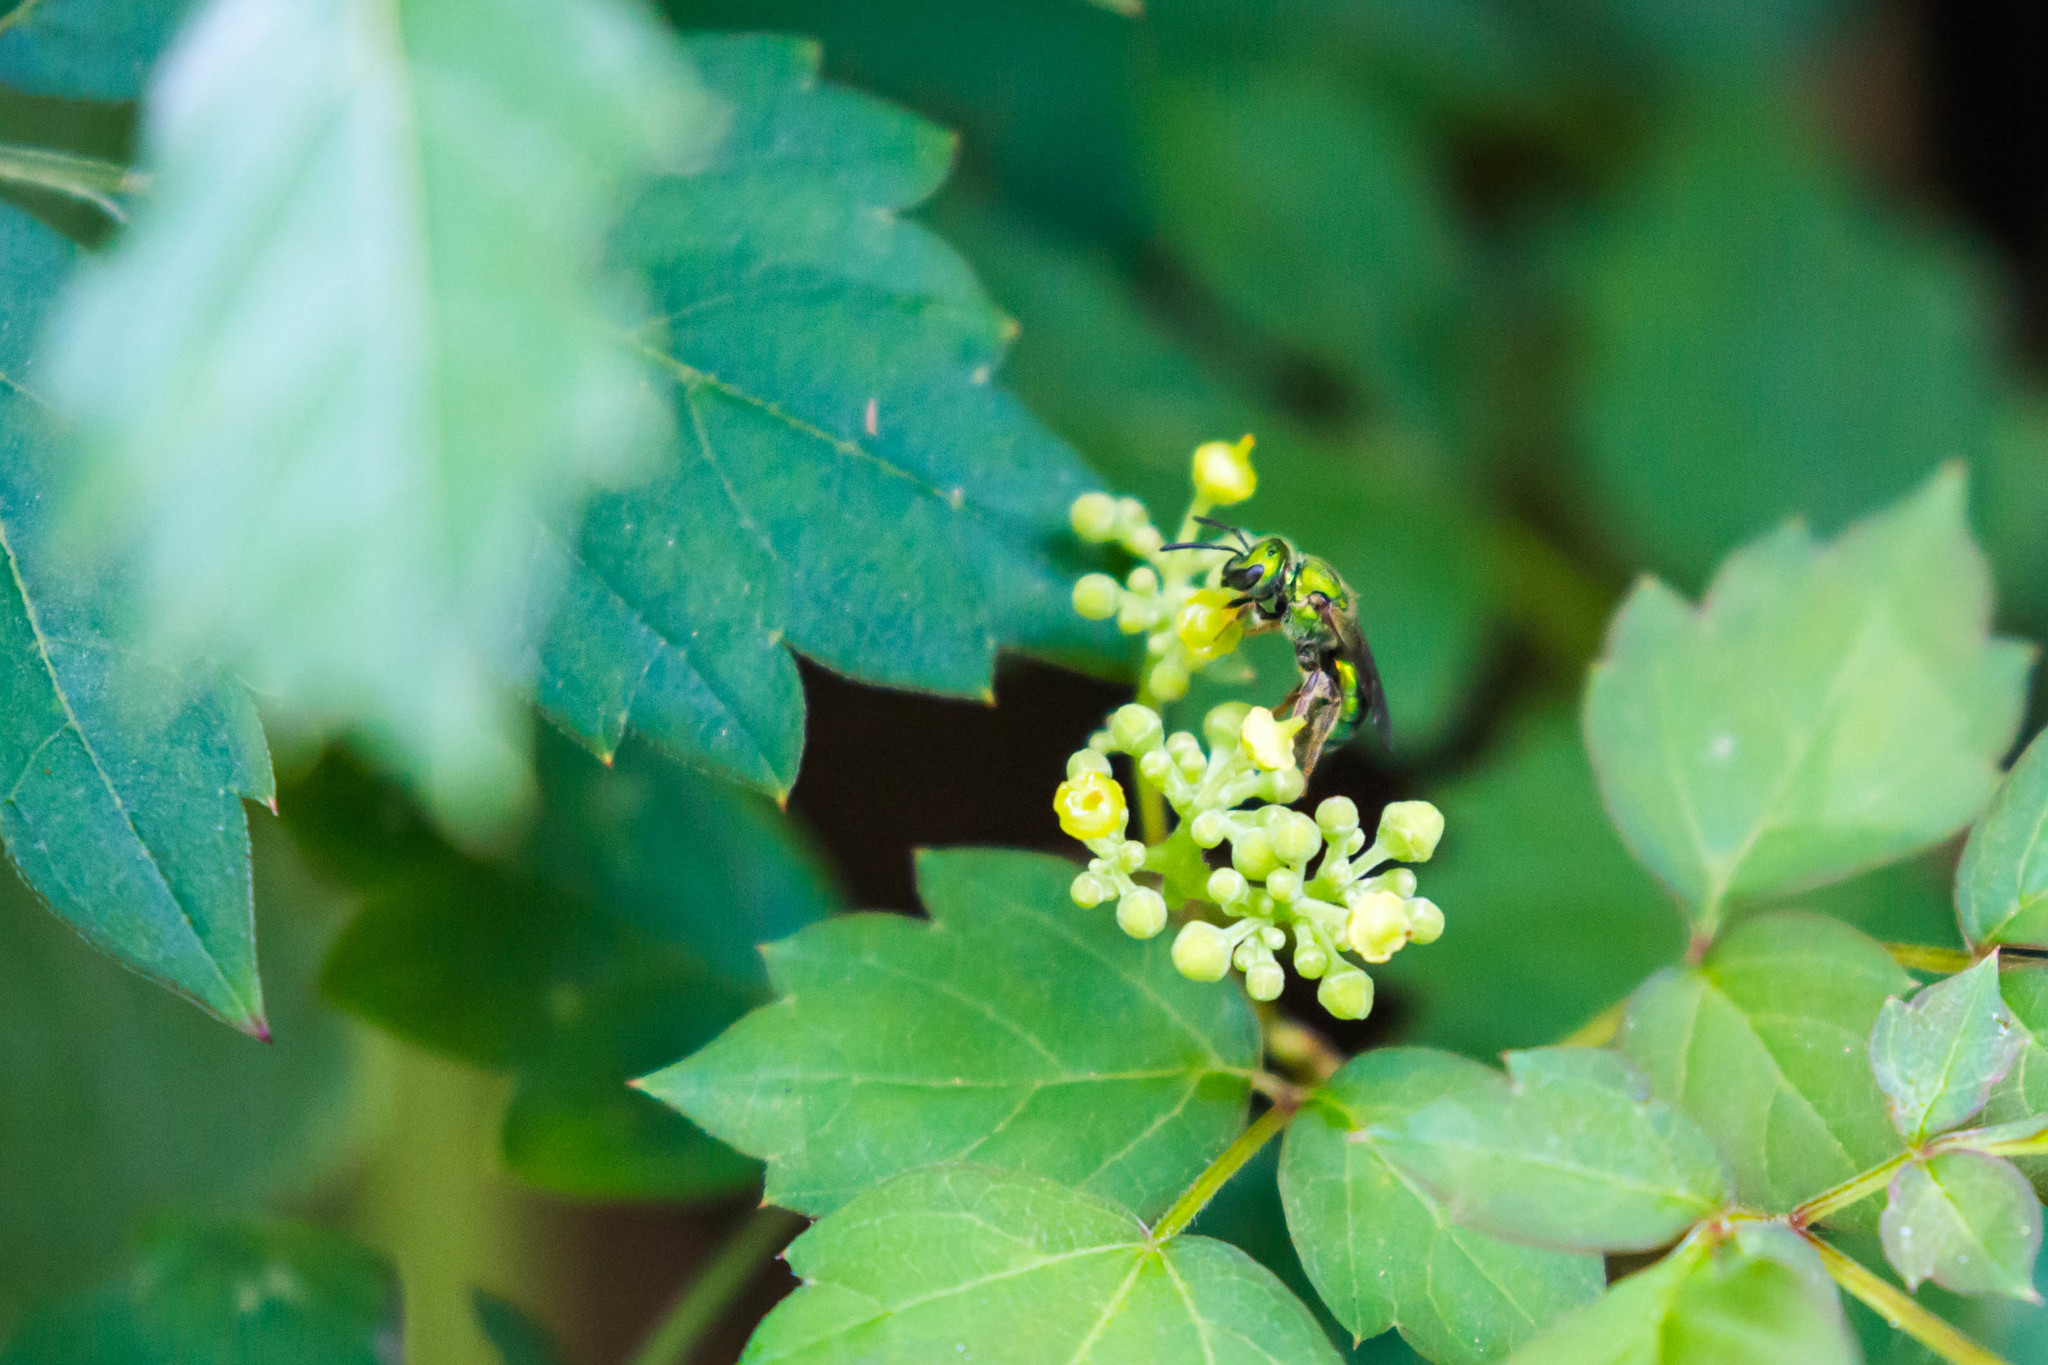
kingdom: Animalia
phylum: Arthropoda
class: Insecta
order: Hymenoptera
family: Halictidae
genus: Augochlora
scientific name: Augochlora pura
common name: Pure green sweat bee
